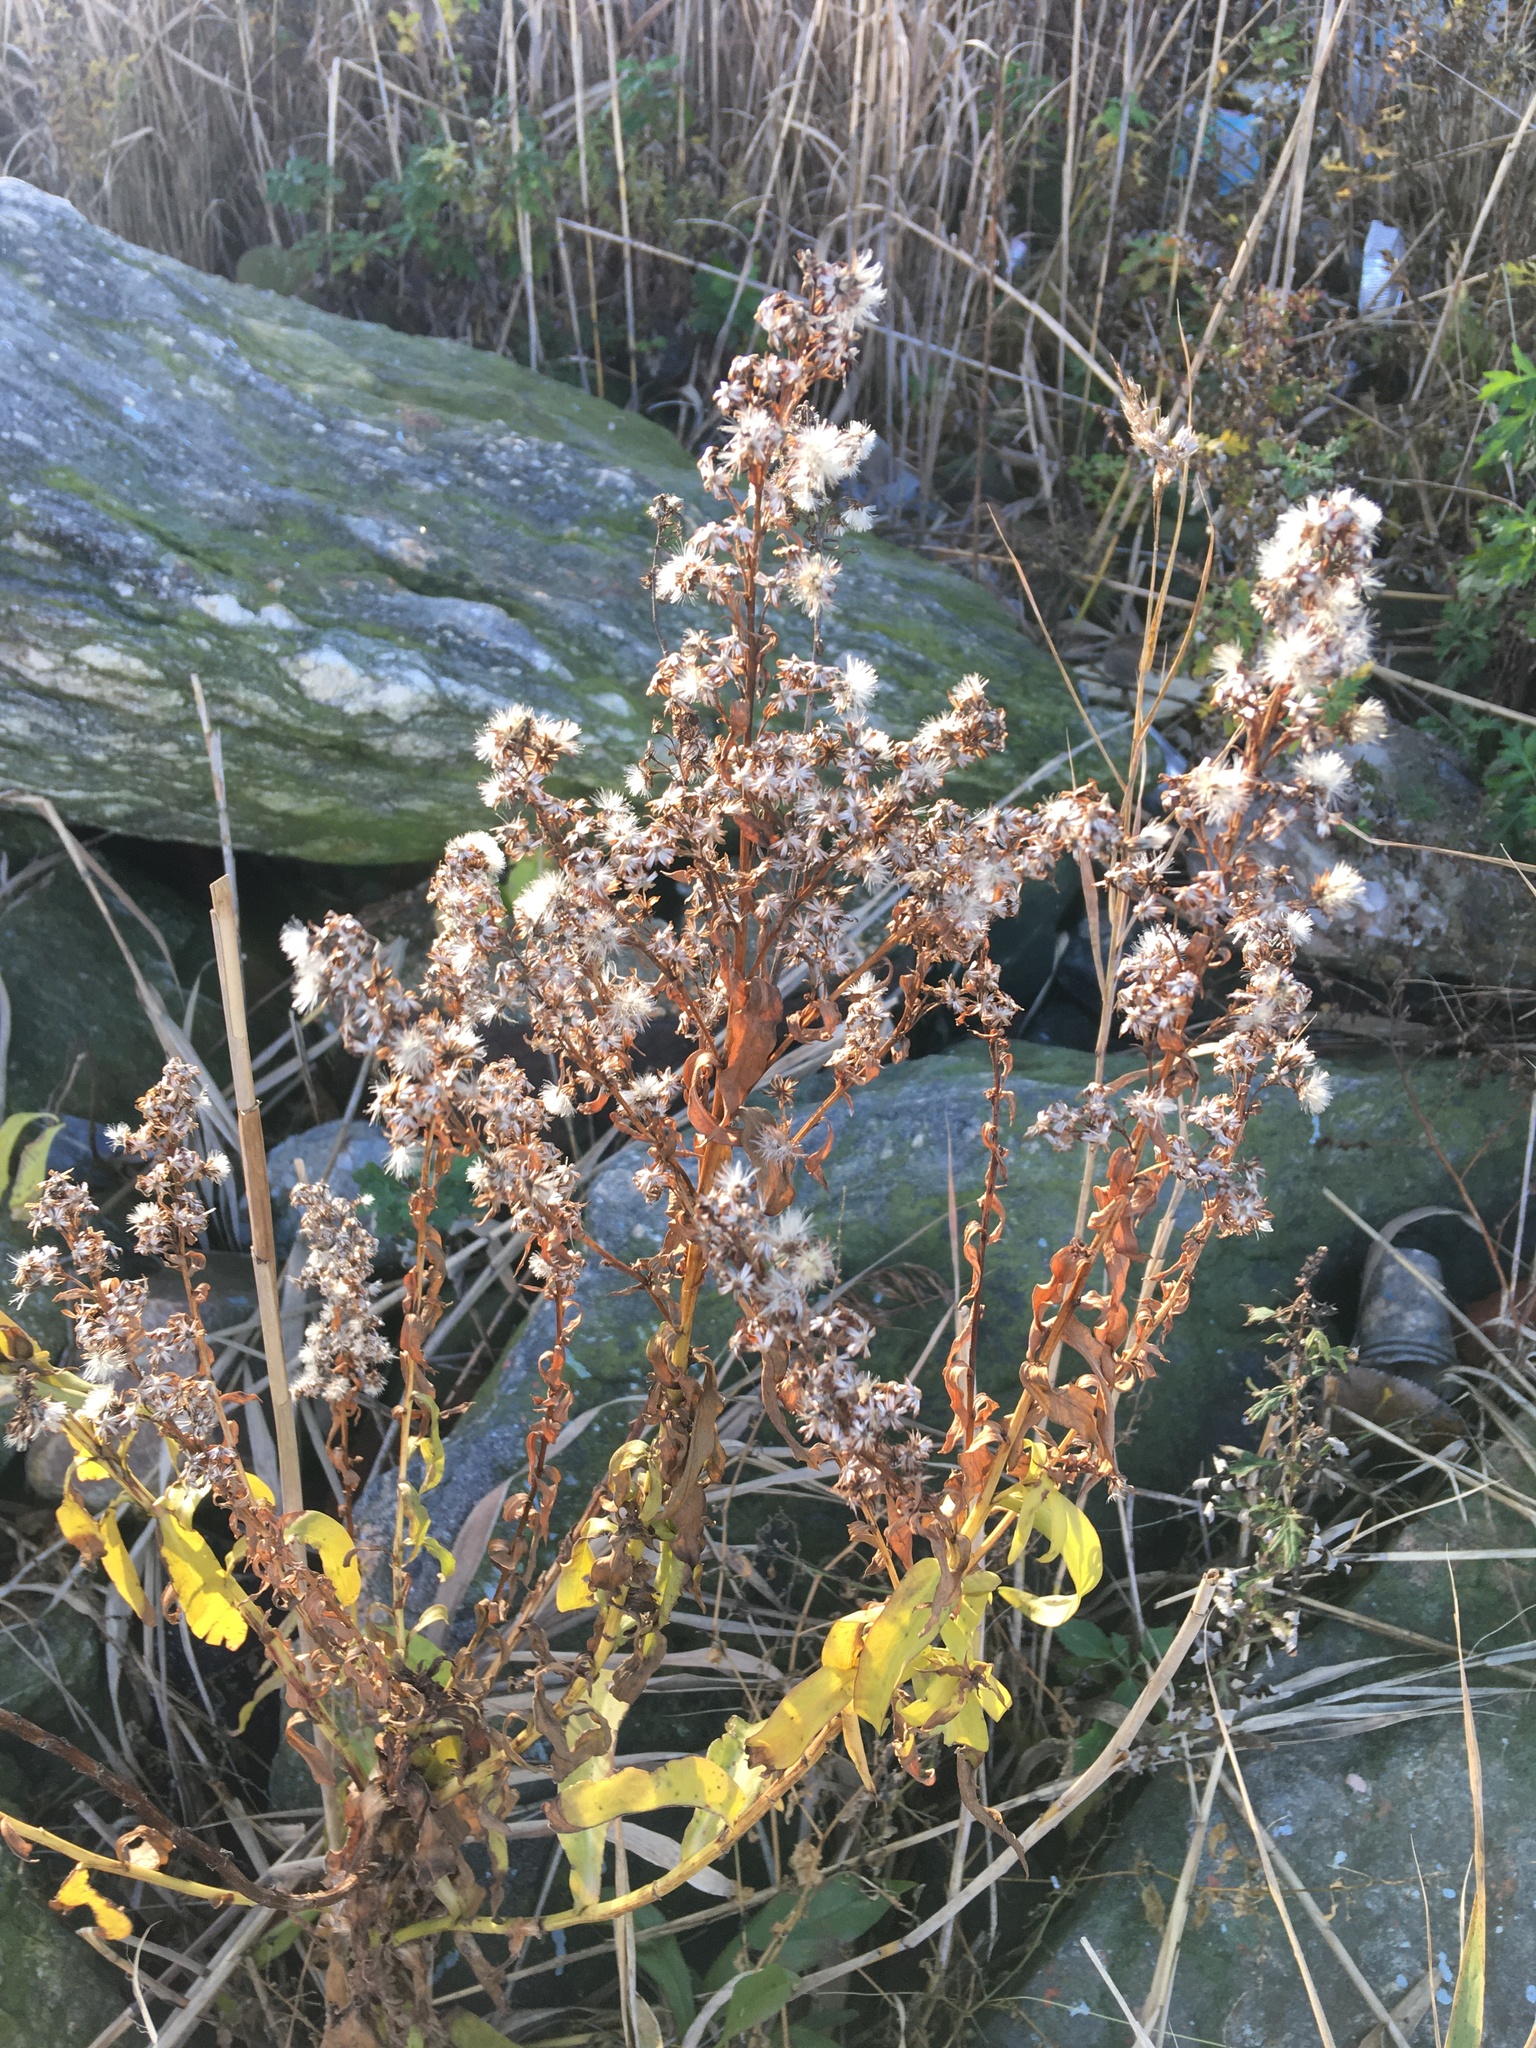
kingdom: Plantae
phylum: Tracheophyta
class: Magnoliopsida
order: Asterales
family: Asteraceae
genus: Solidago
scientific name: Solidago sempervirens
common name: Salt-marsh goldenrod
